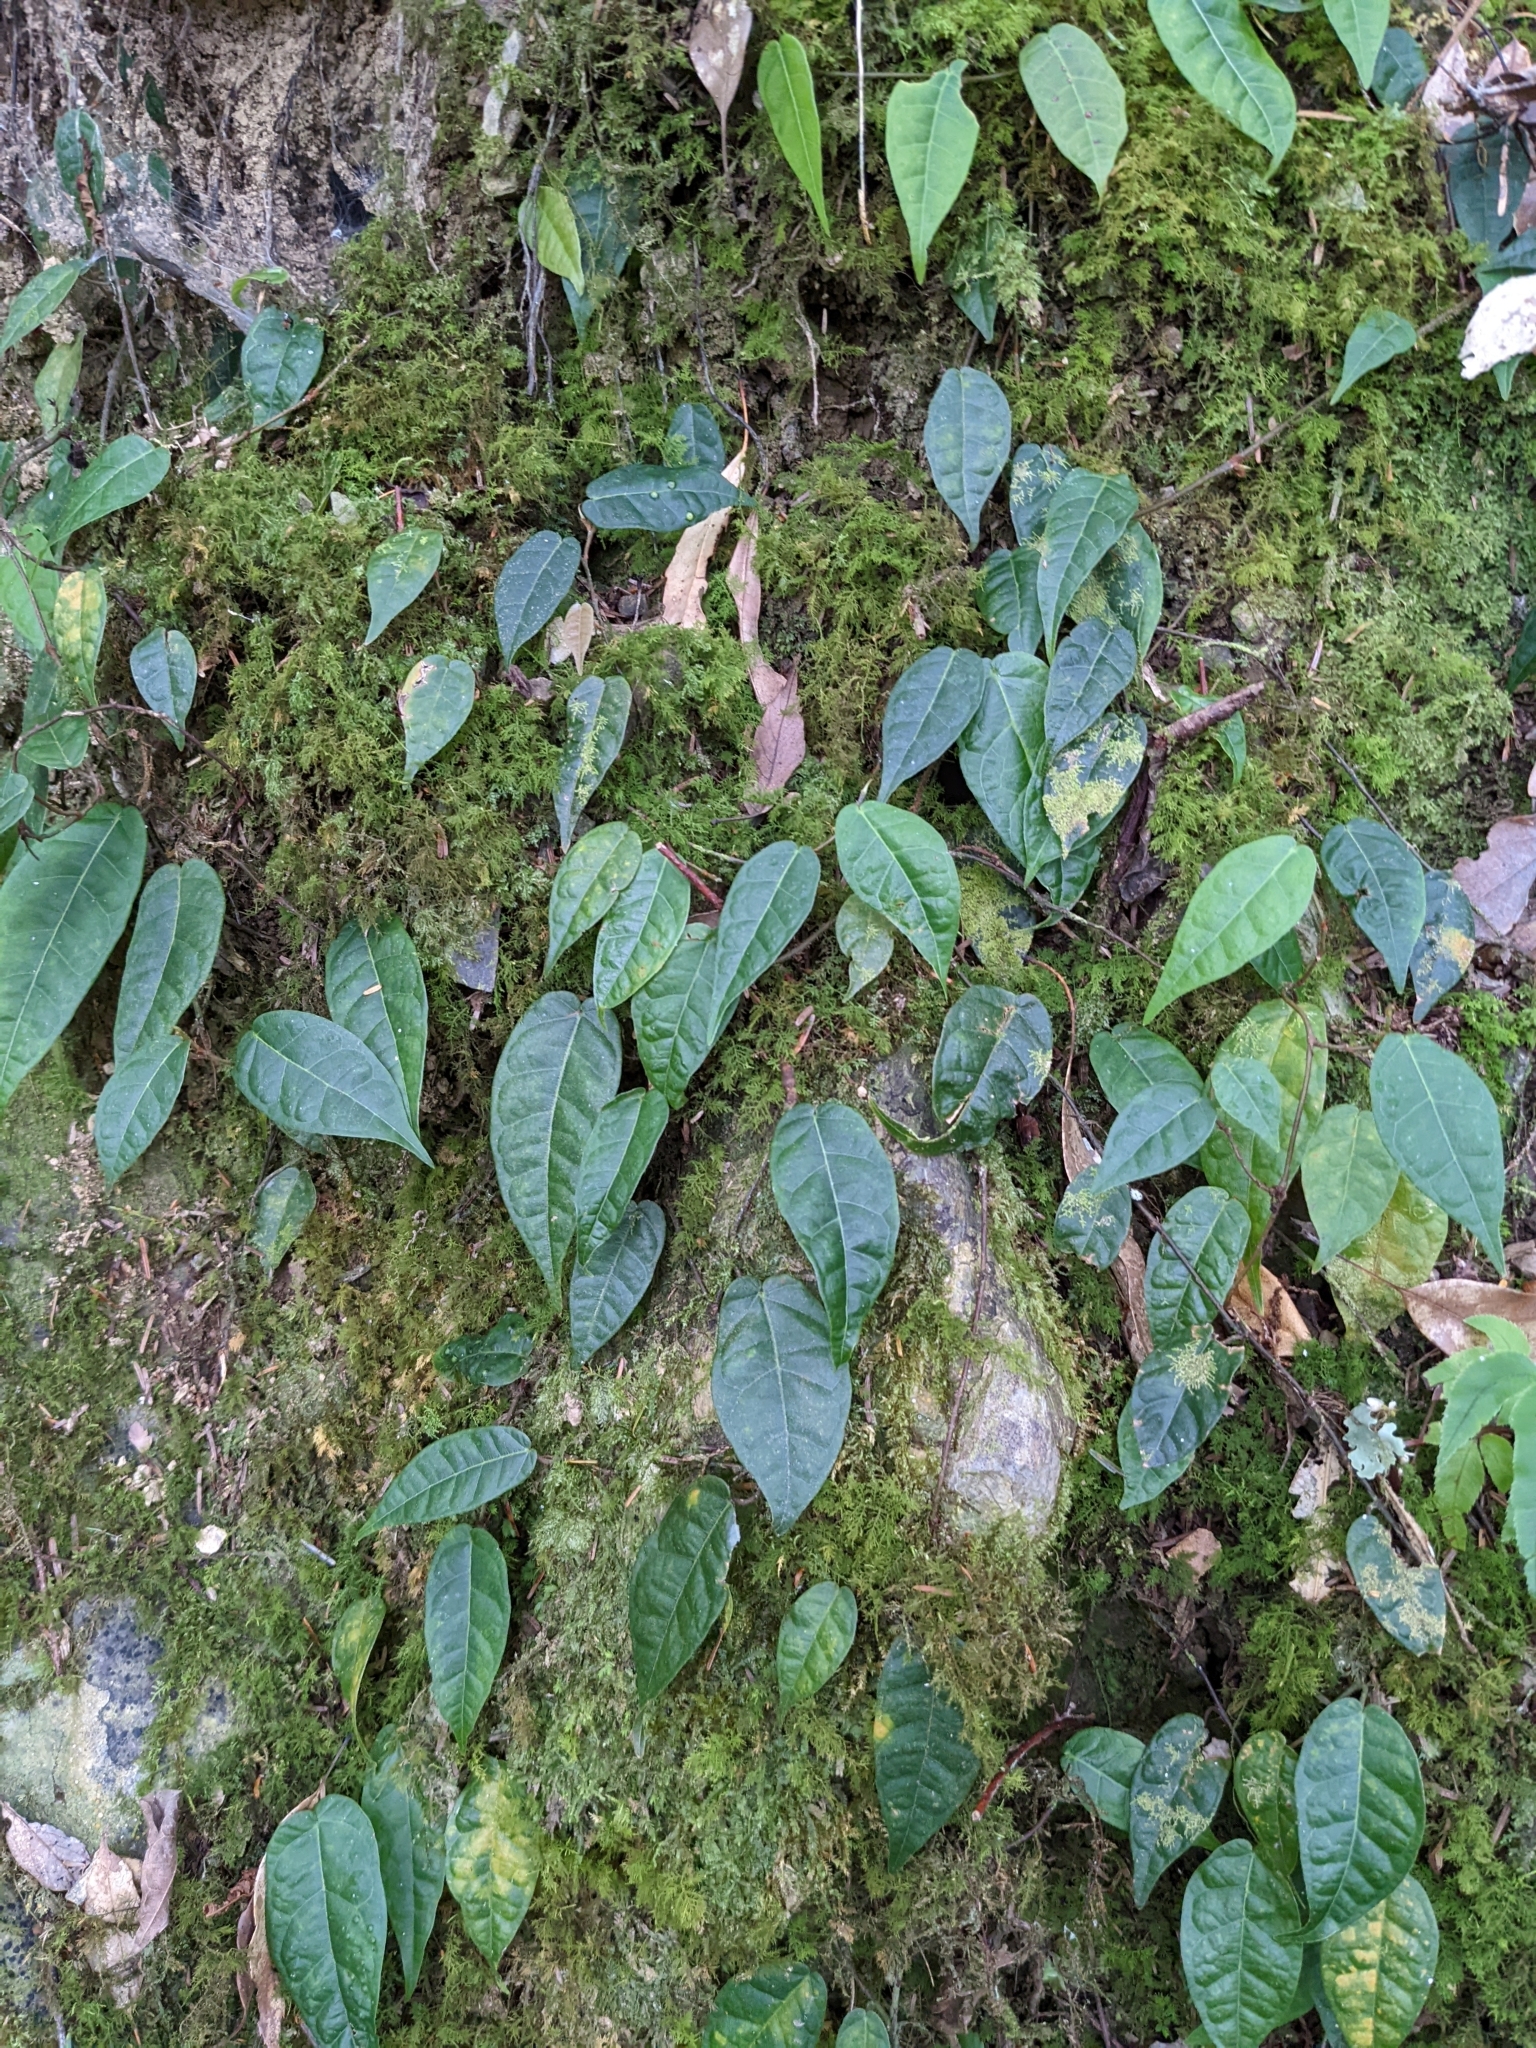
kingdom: Plantae
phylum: Tracheophyta
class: Magnoliopsida
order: Rosales
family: Moraceae
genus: Ficus
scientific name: Ficus sarmentosa
